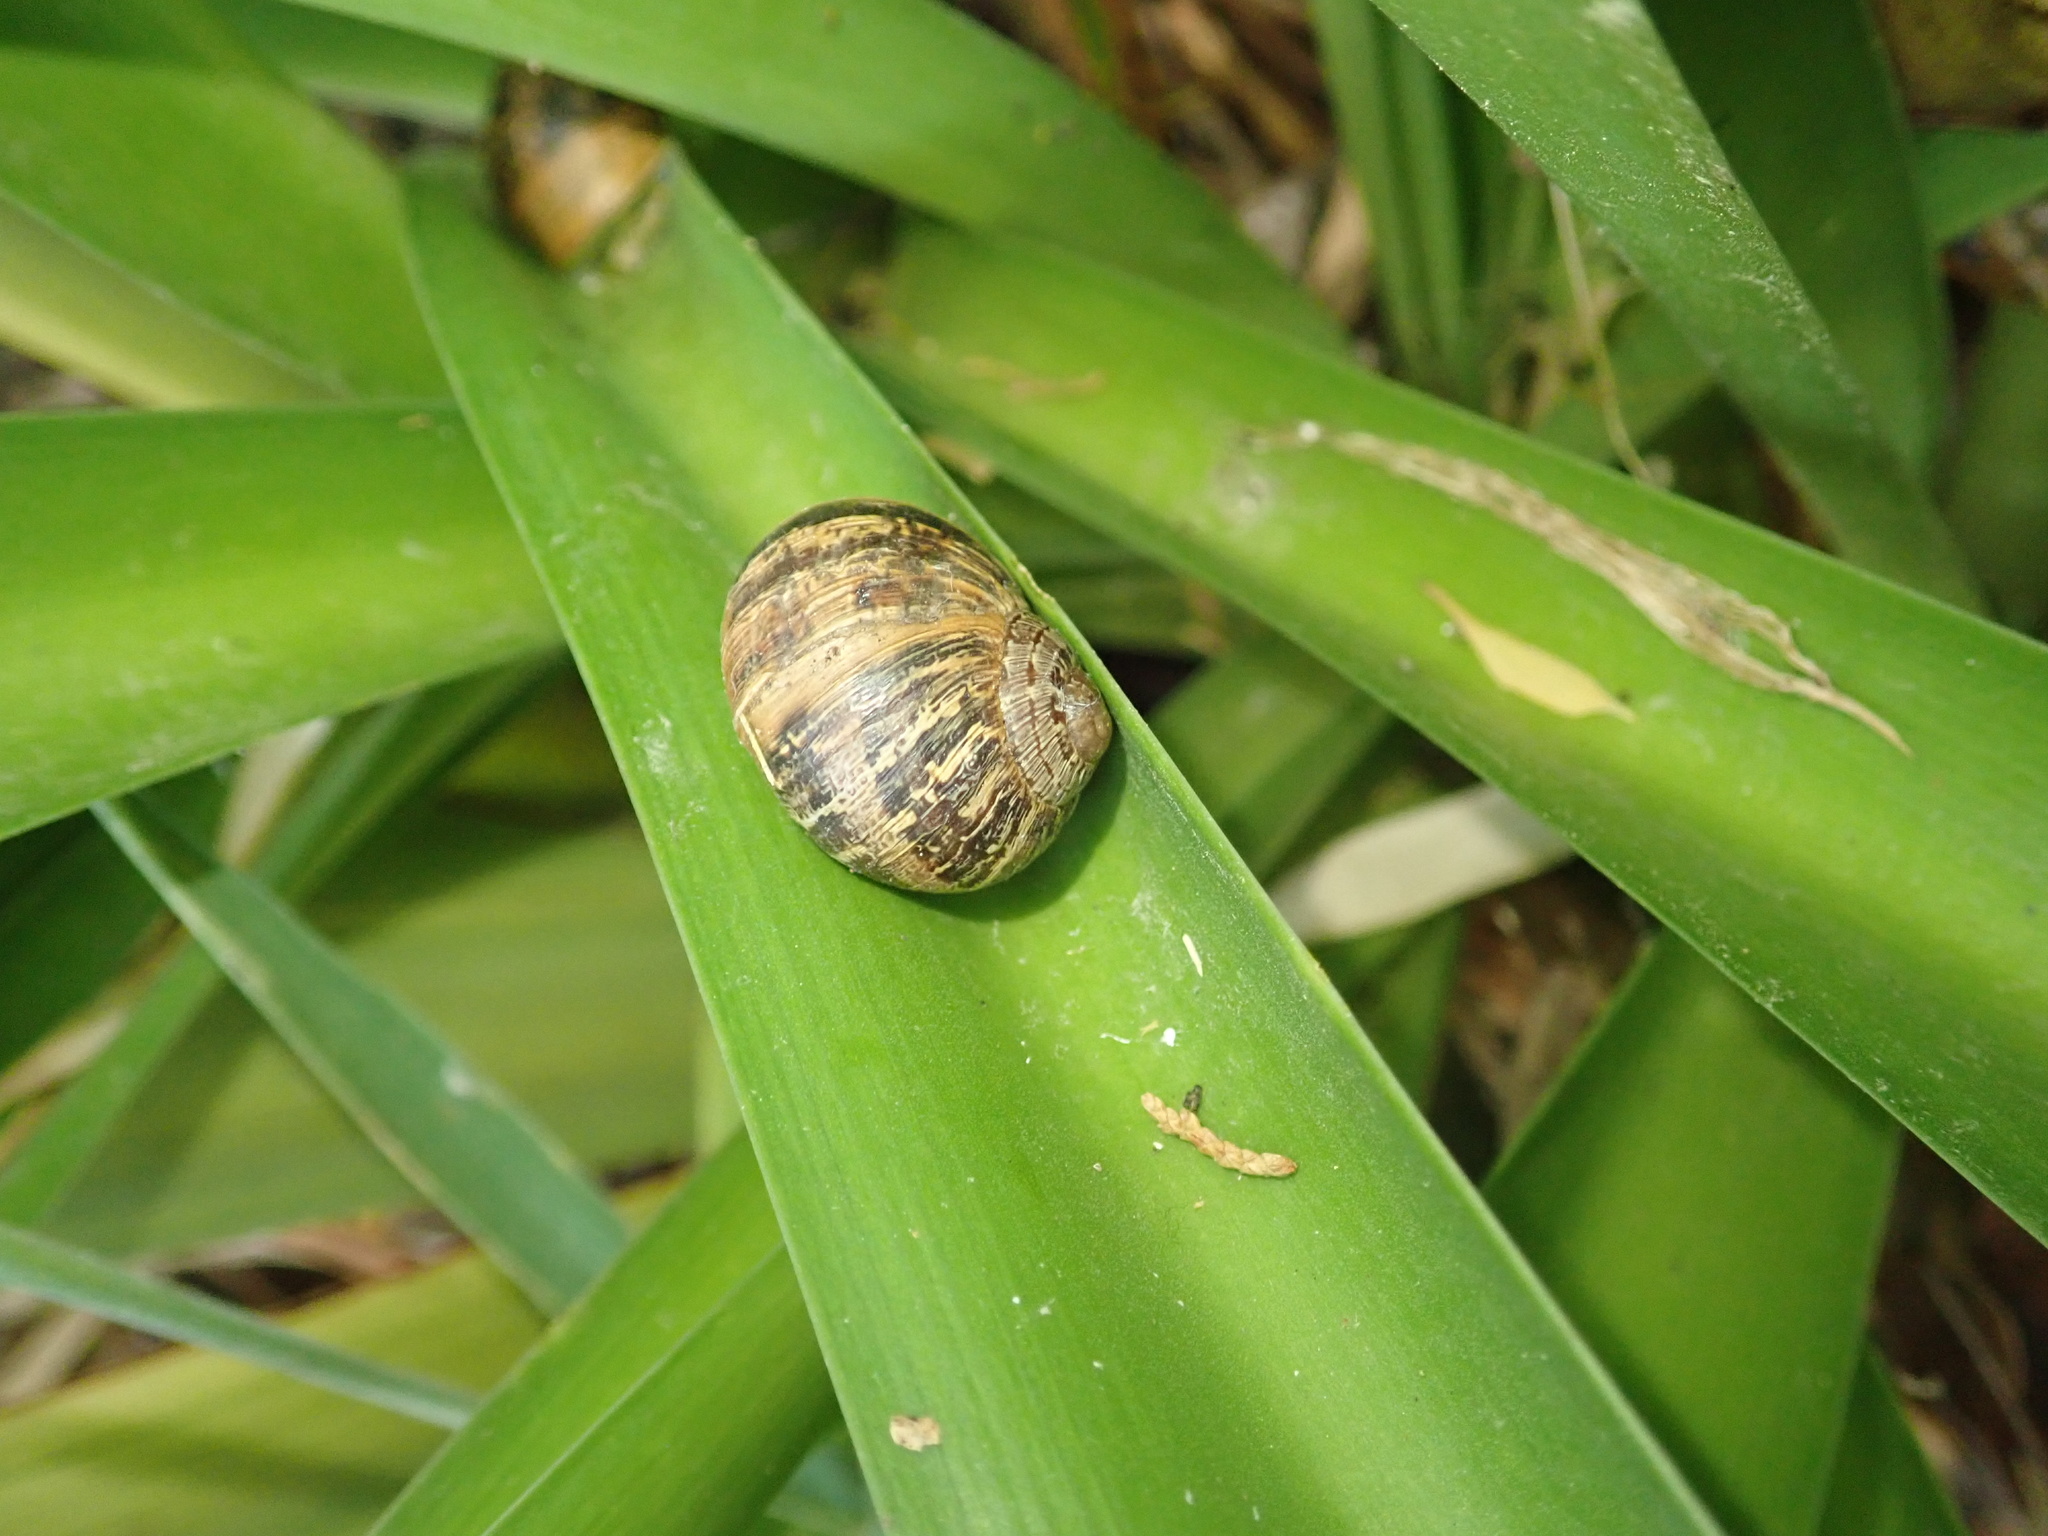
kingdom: Animalia
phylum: Mollusca
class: Gastropoda
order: Stylommatophora
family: Helicidae
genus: Cornu
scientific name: Cornu aspersum
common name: Brown garden snail
